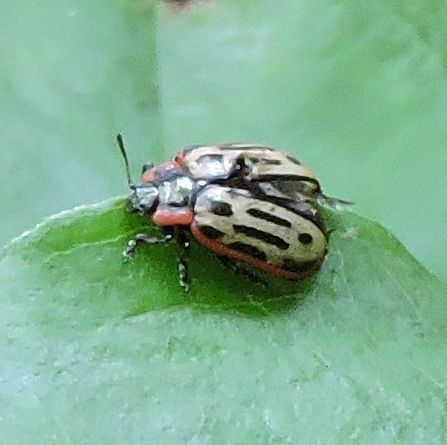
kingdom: Animalia
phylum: Arthropoda
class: Insecta
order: Coleoptera
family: Chrysomelidae
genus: Aethiopocassis
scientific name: Aethiopocassis scripta
